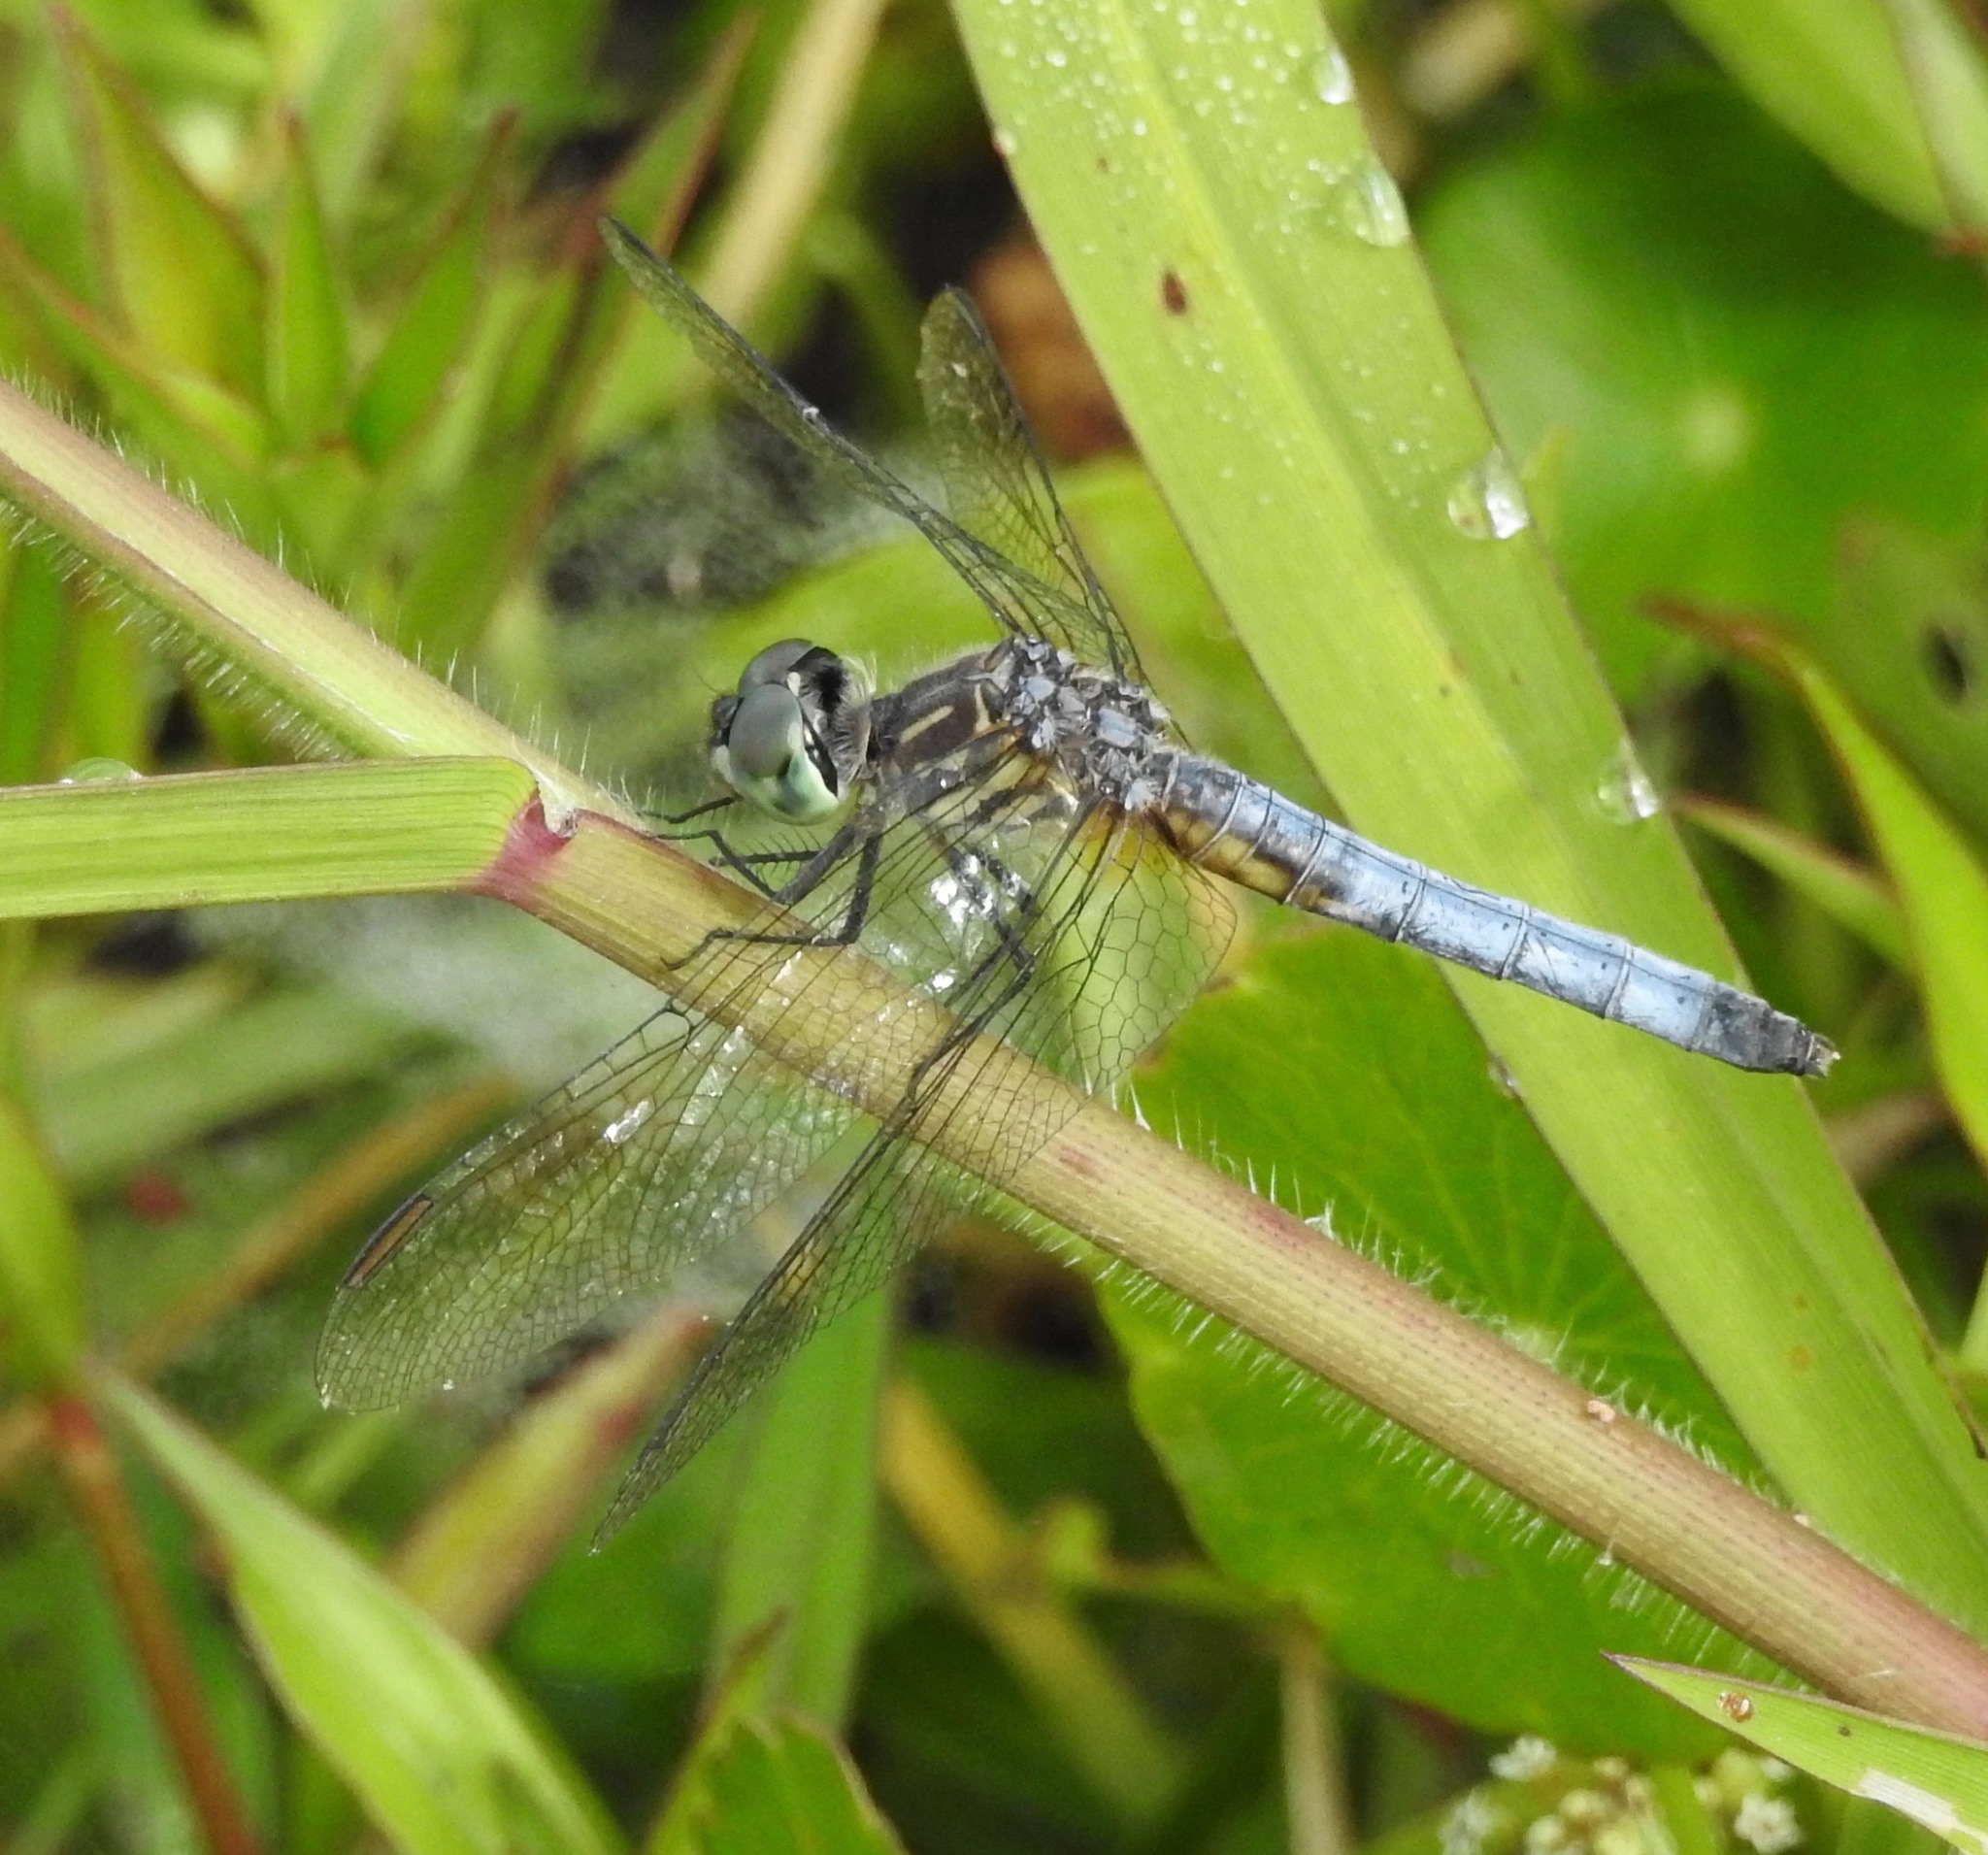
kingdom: Animalia
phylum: Arthropoda
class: Insecta
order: Odonata
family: Libellulidae
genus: Pachydiplax
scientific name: Pachydiplax longipennis
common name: Blue dasher
